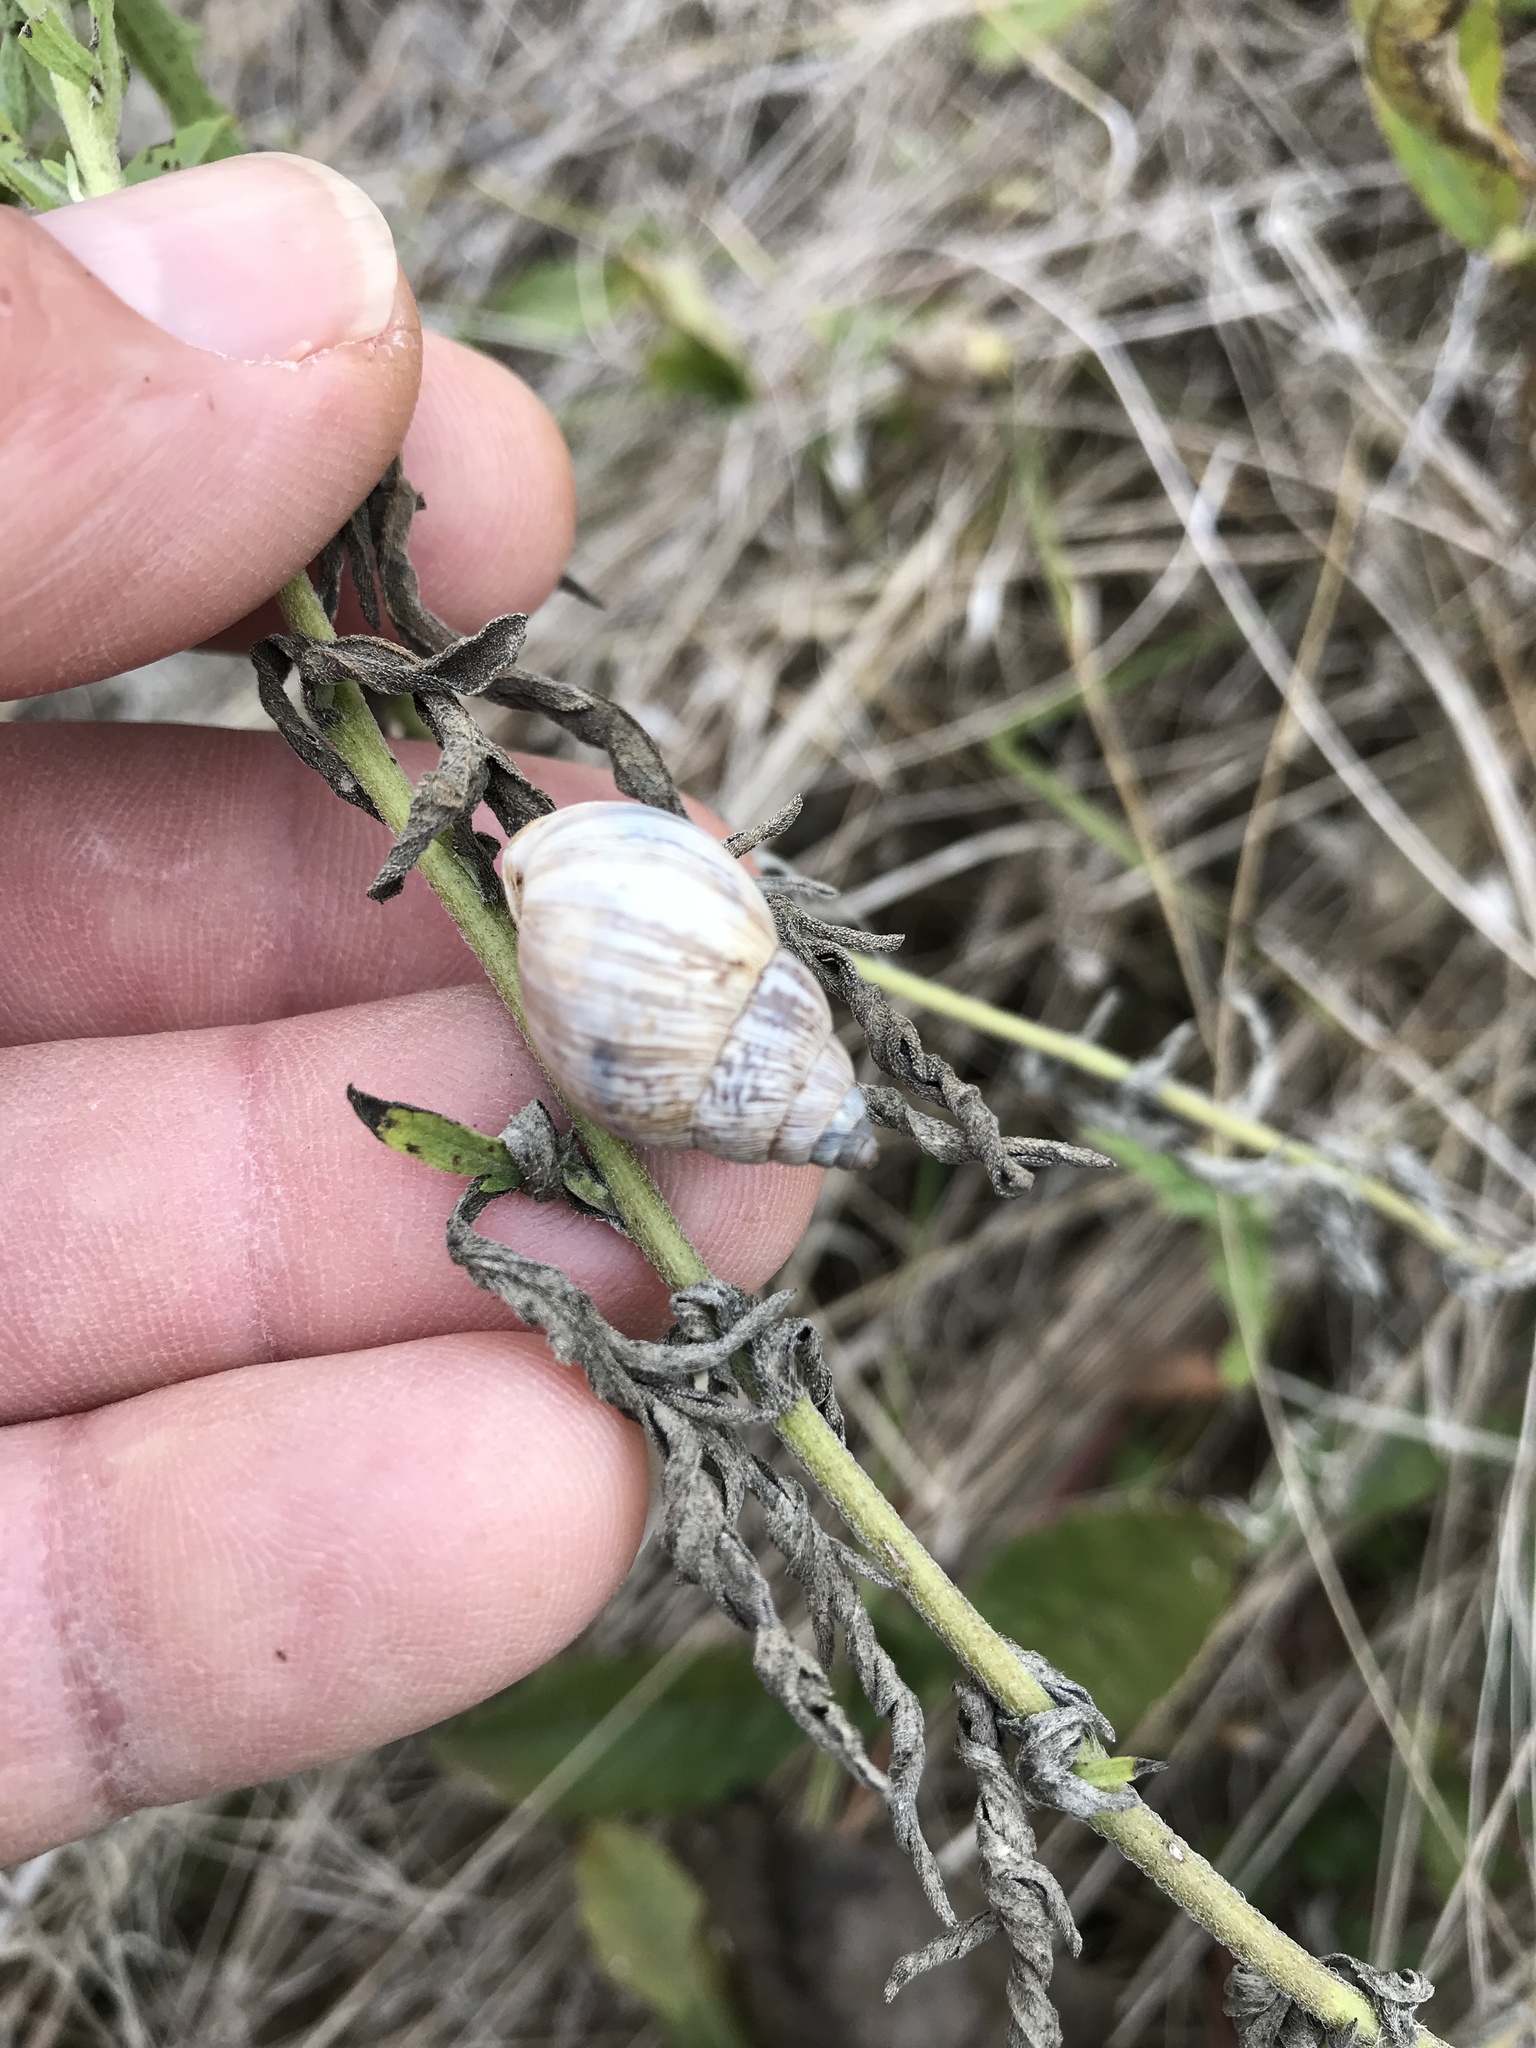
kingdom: Animalia
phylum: Mollusca
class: Gastropoda
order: Stylommatophora
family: Bulimulidae
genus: Rabdotus
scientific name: Rabdotus dealbatus
